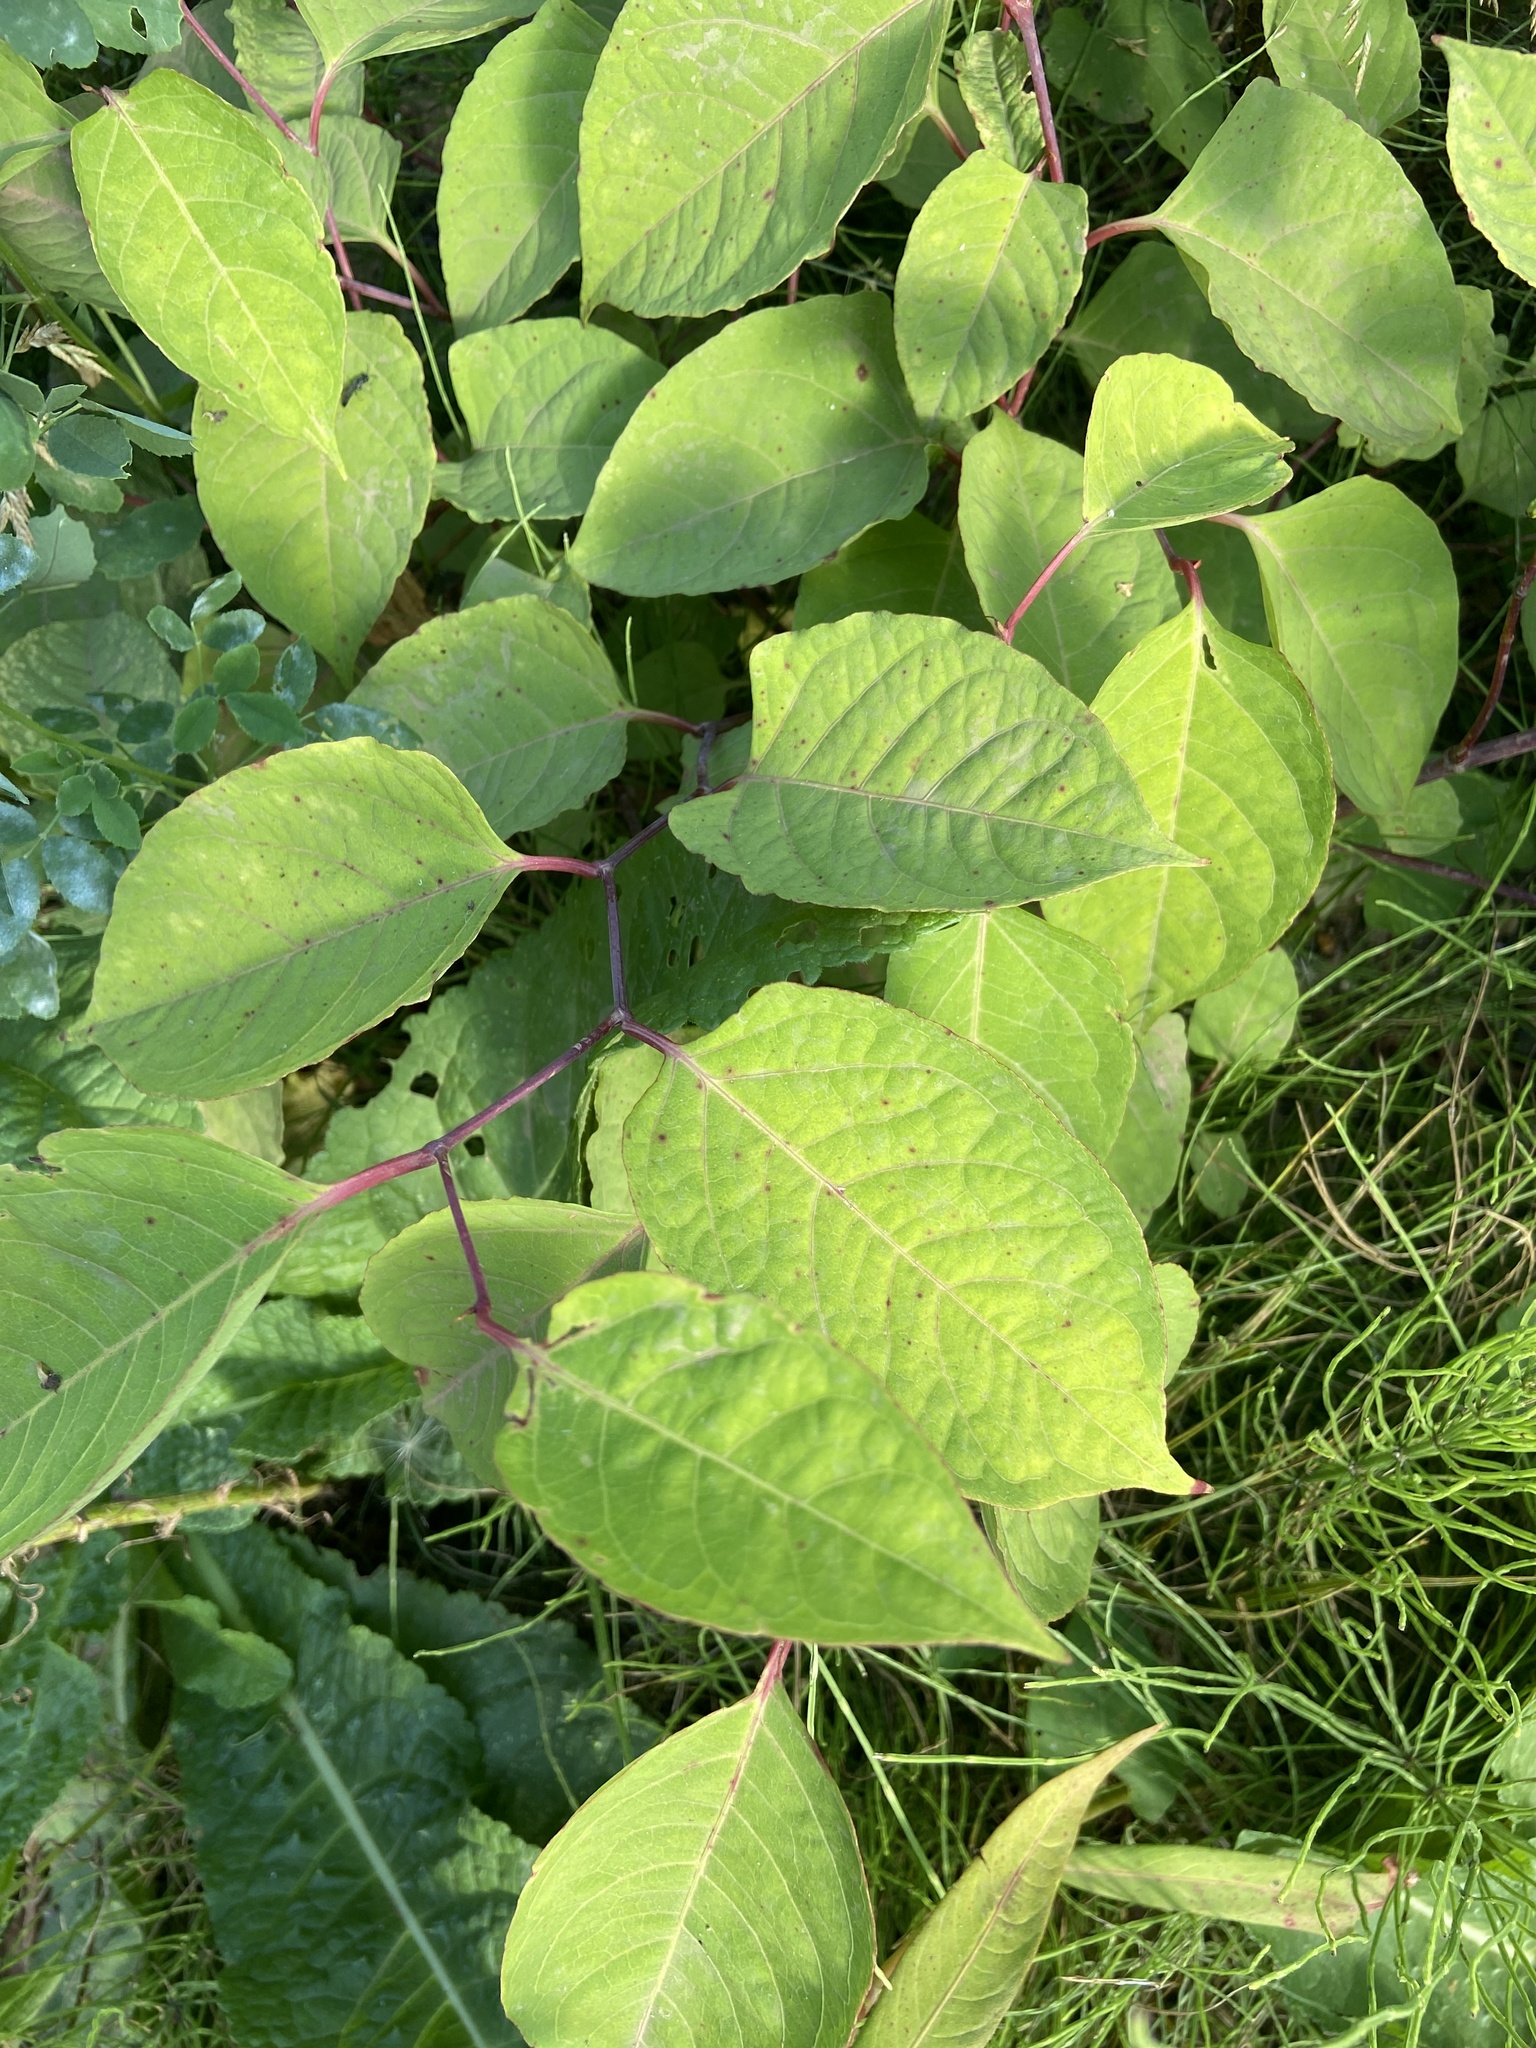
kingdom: Plantae
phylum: Tracheophyta
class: Magnoliopsida
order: Caryophyllales
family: Polygonaceae
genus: Reynoutria
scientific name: Reynoutria bohemica
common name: Bohemian knotweed
